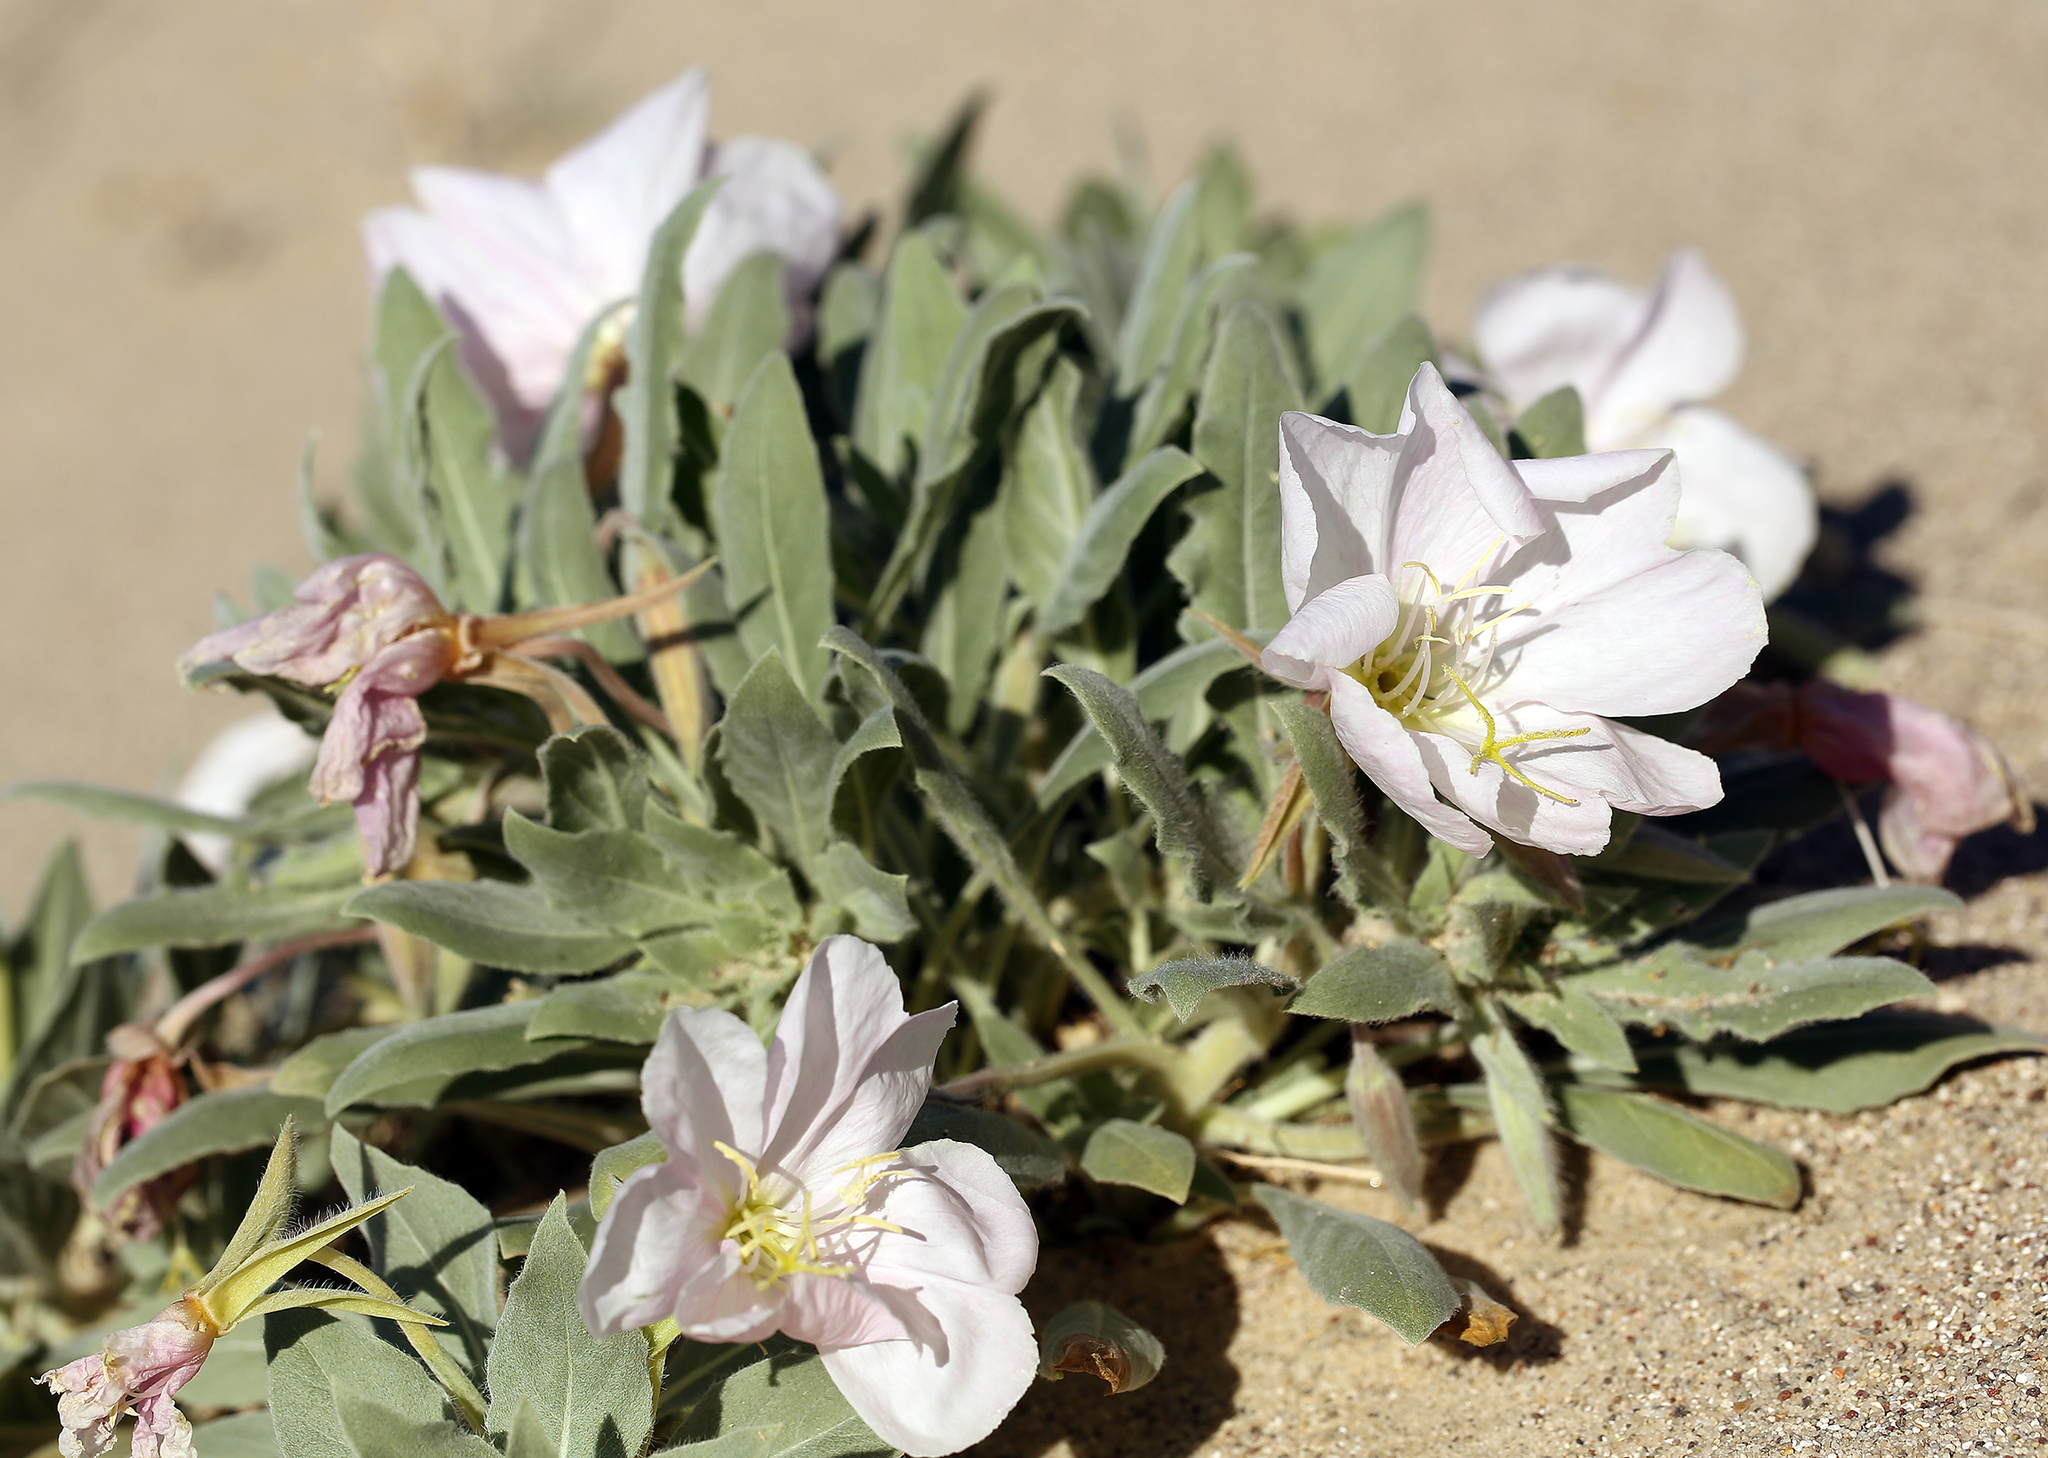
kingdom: Plantae
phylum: Tracheophyta
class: Magnoliopsida
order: Myrtales
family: Onagraceae
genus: Oenothera
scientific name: Oenothera avita
